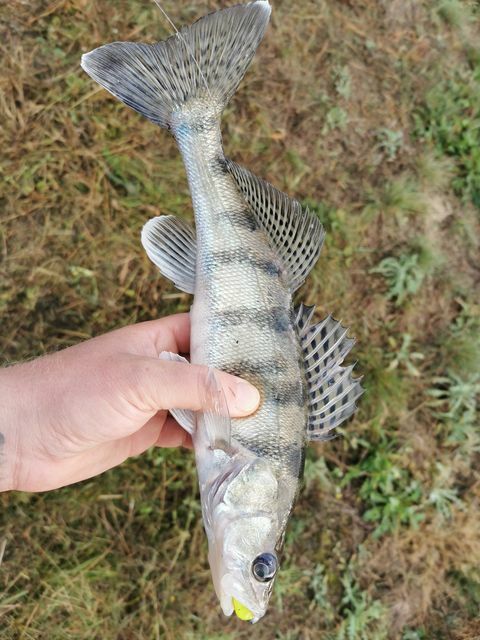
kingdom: Animalia
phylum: Chordata
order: Perciformes
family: Percidae
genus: Sander
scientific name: Sander volgensis
